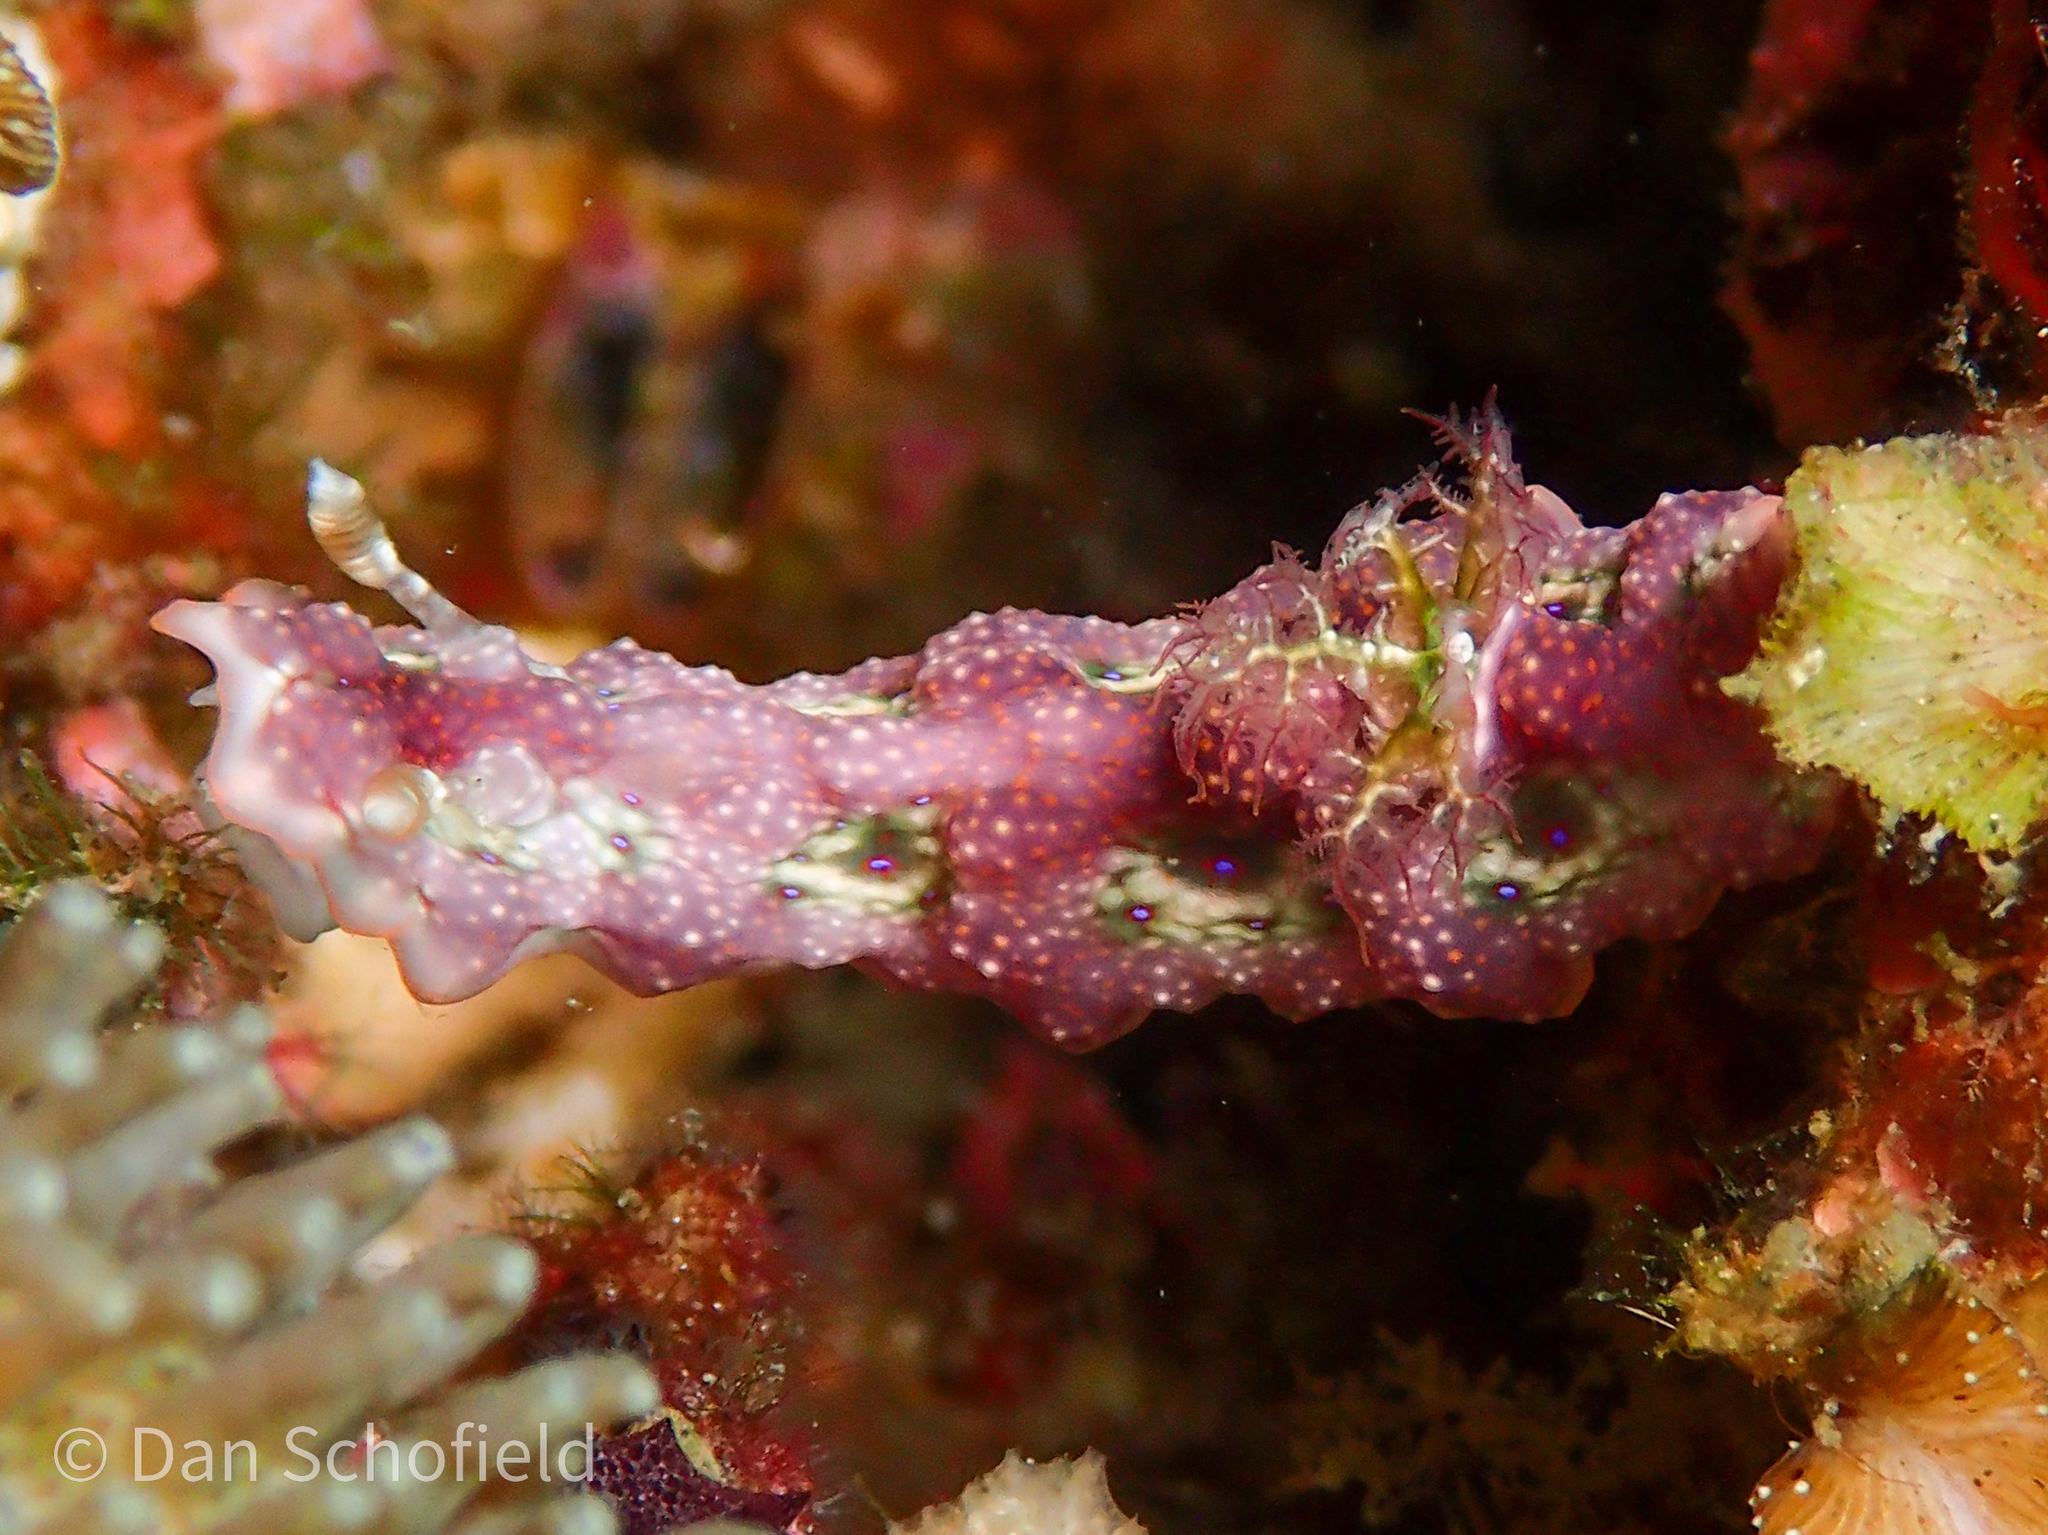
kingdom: Animalia
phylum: Mollusca
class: Gastropoda
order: Nudibranchia
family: Chromodorididae
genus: Miamira
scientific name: Miamira miamirana
